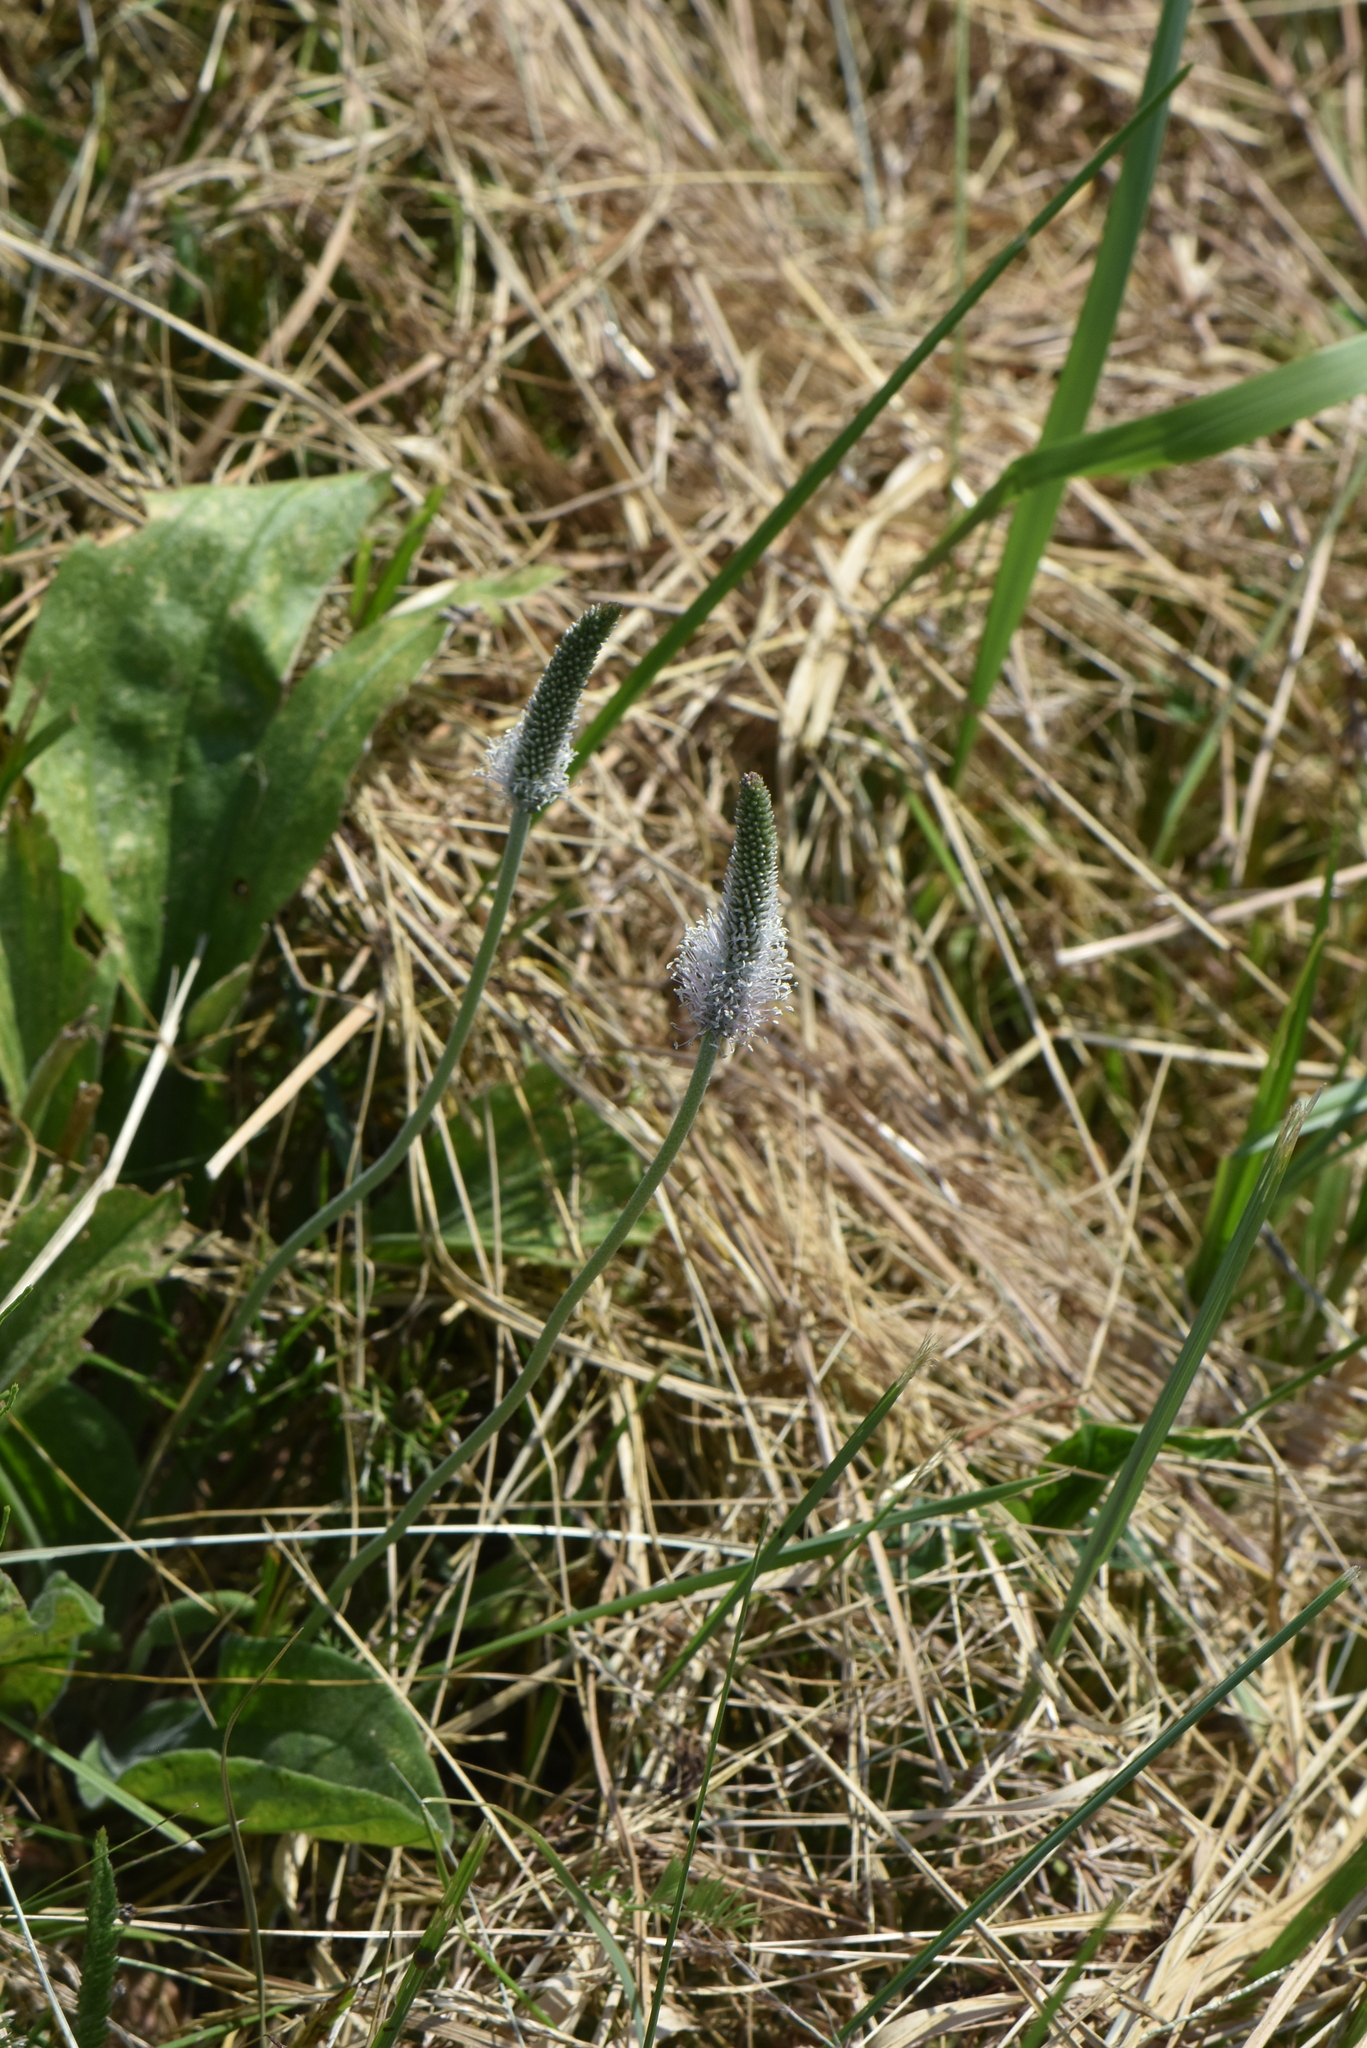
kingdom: Plantae
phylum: Tracheophyta
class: Magnoliopsida
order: Lamiales
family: Plantaginaceae
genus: Plantago
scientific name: Plantago media
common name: Hoary plantain
